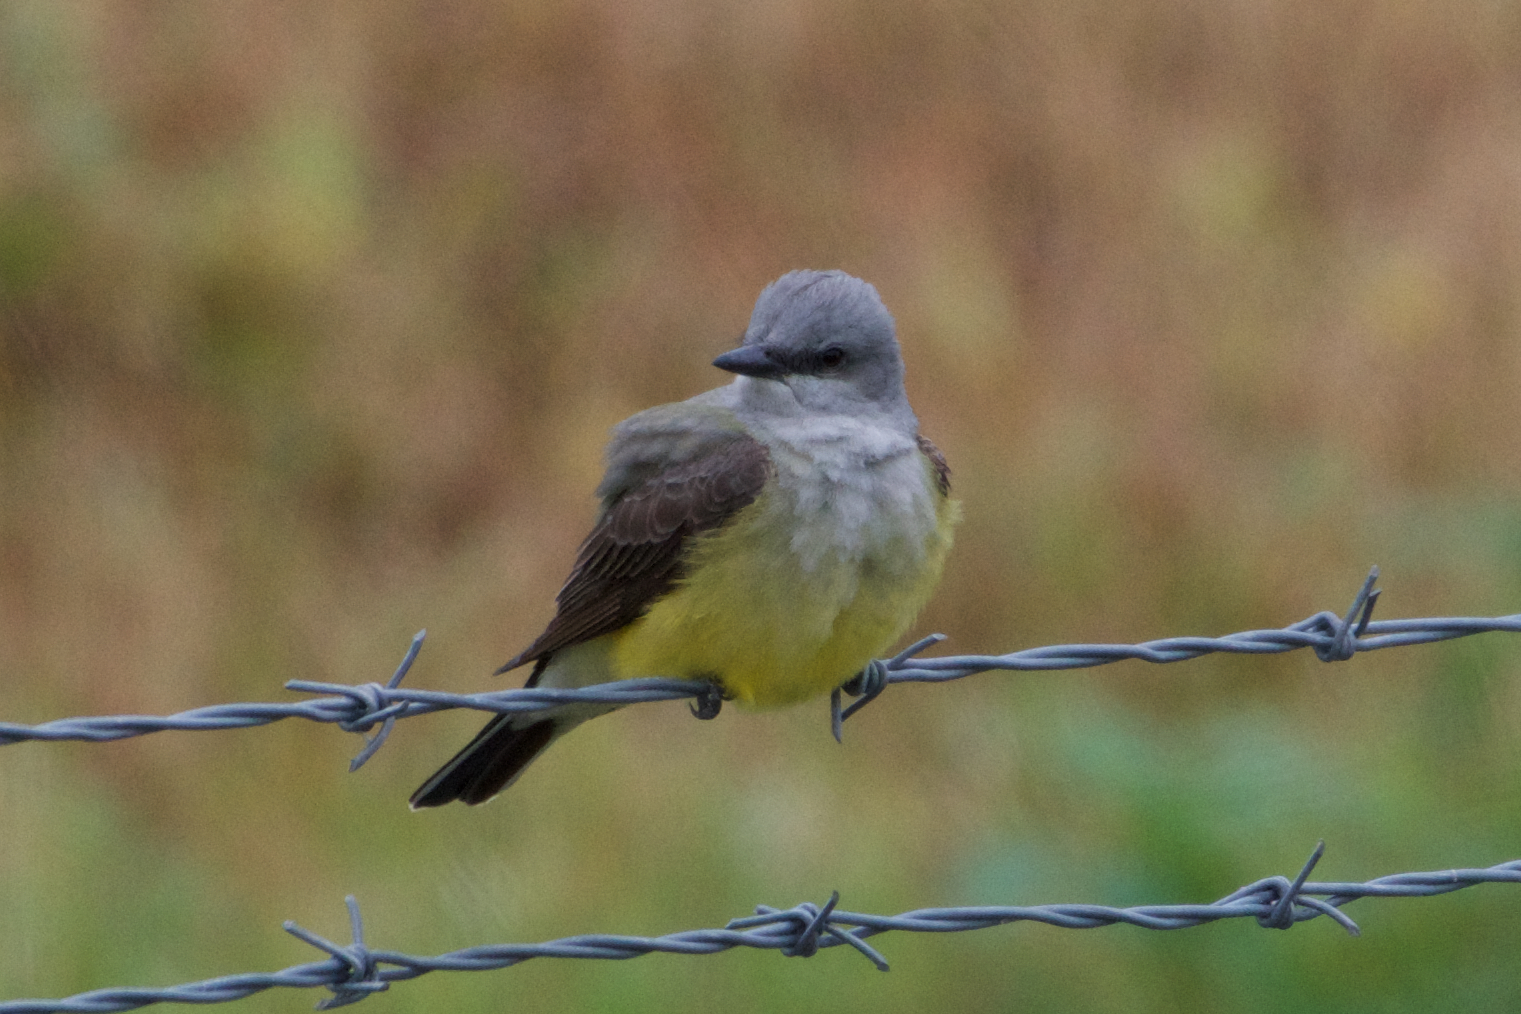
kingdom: Animalia
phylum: Chordata
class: Aves
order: Passeriformes
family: Tyrannidae
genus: Tyrannus
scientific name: Tyrannus verticalis
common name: Western kingbird
